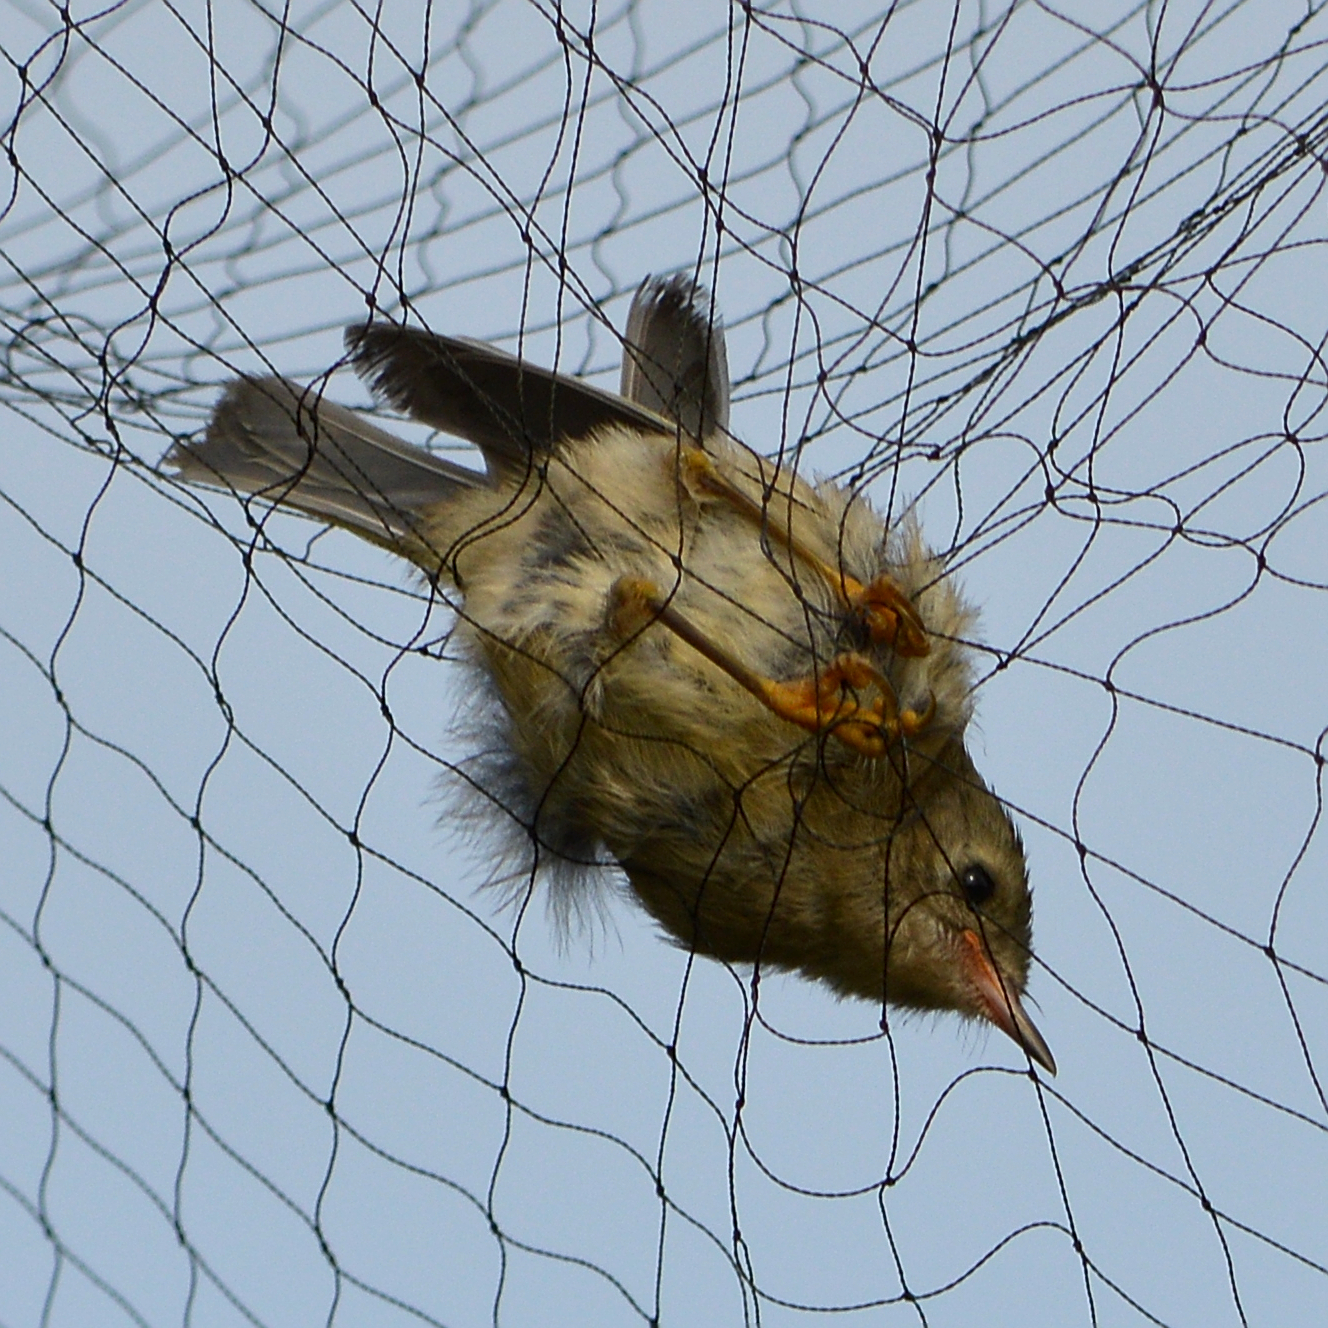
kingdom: Animalia
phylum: Chordata
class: Aves
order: Passeriformes
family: Regulidae
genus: Regulus
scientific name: Regulus regulus
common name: Goldcrest
